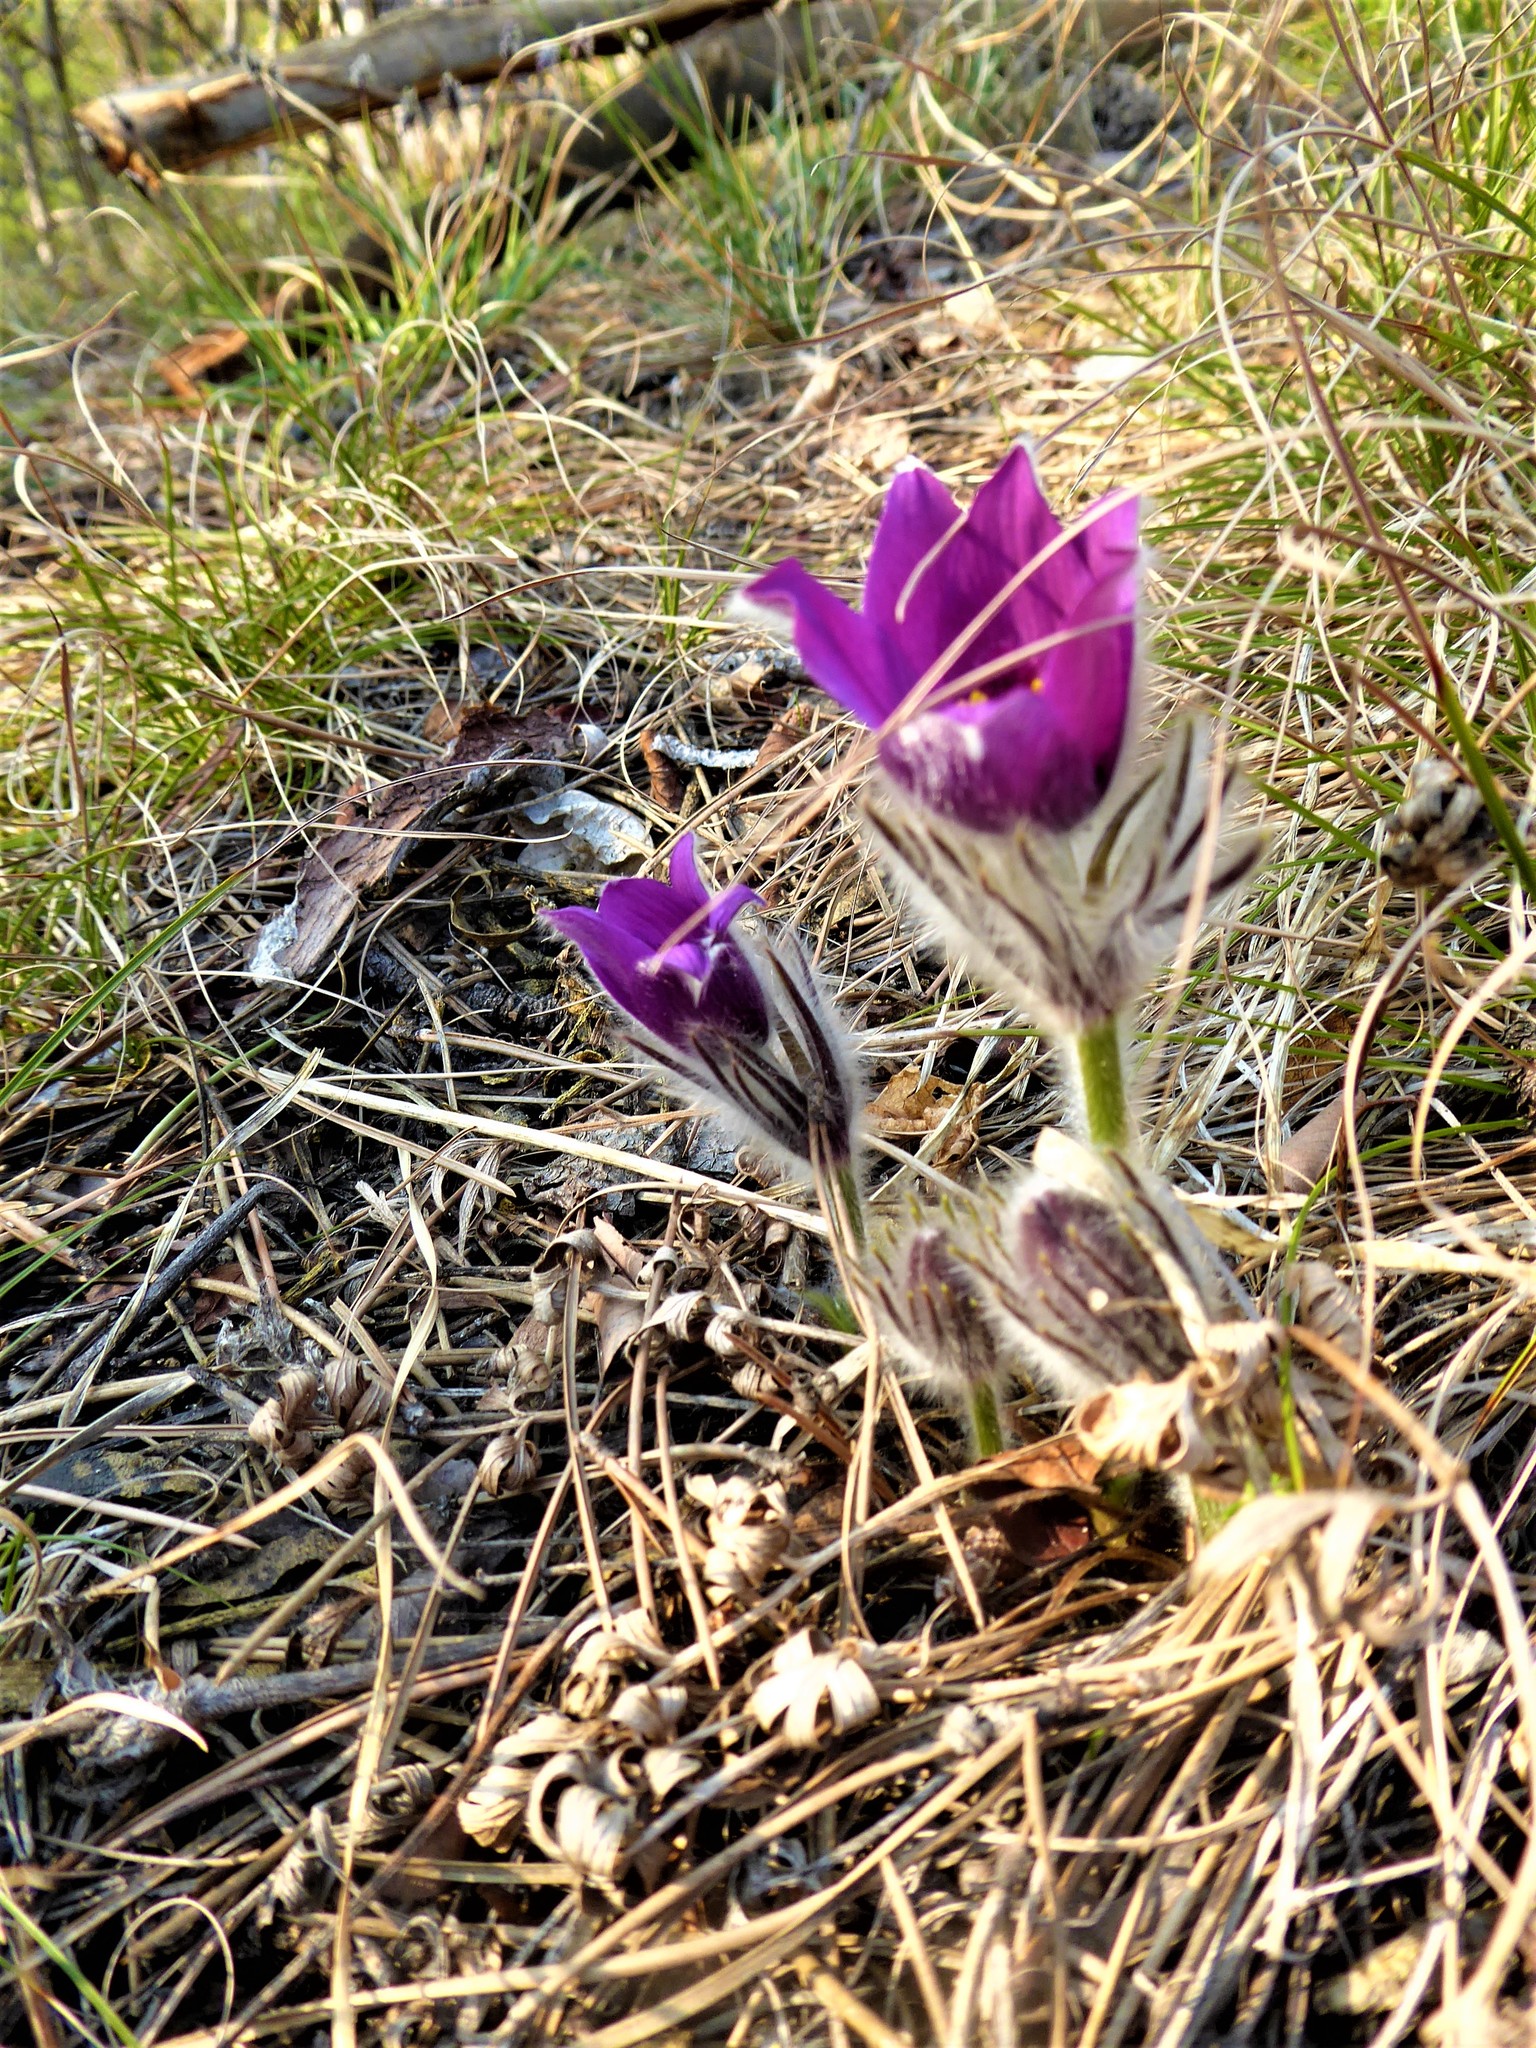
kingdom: Plantae
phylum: Tracheophyta
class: Magnoliopsida
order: Ranunculales
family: Ranunculaceae
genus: Pulsatilla
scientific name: Pulsatilla grandis
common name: Greater pasque flower
